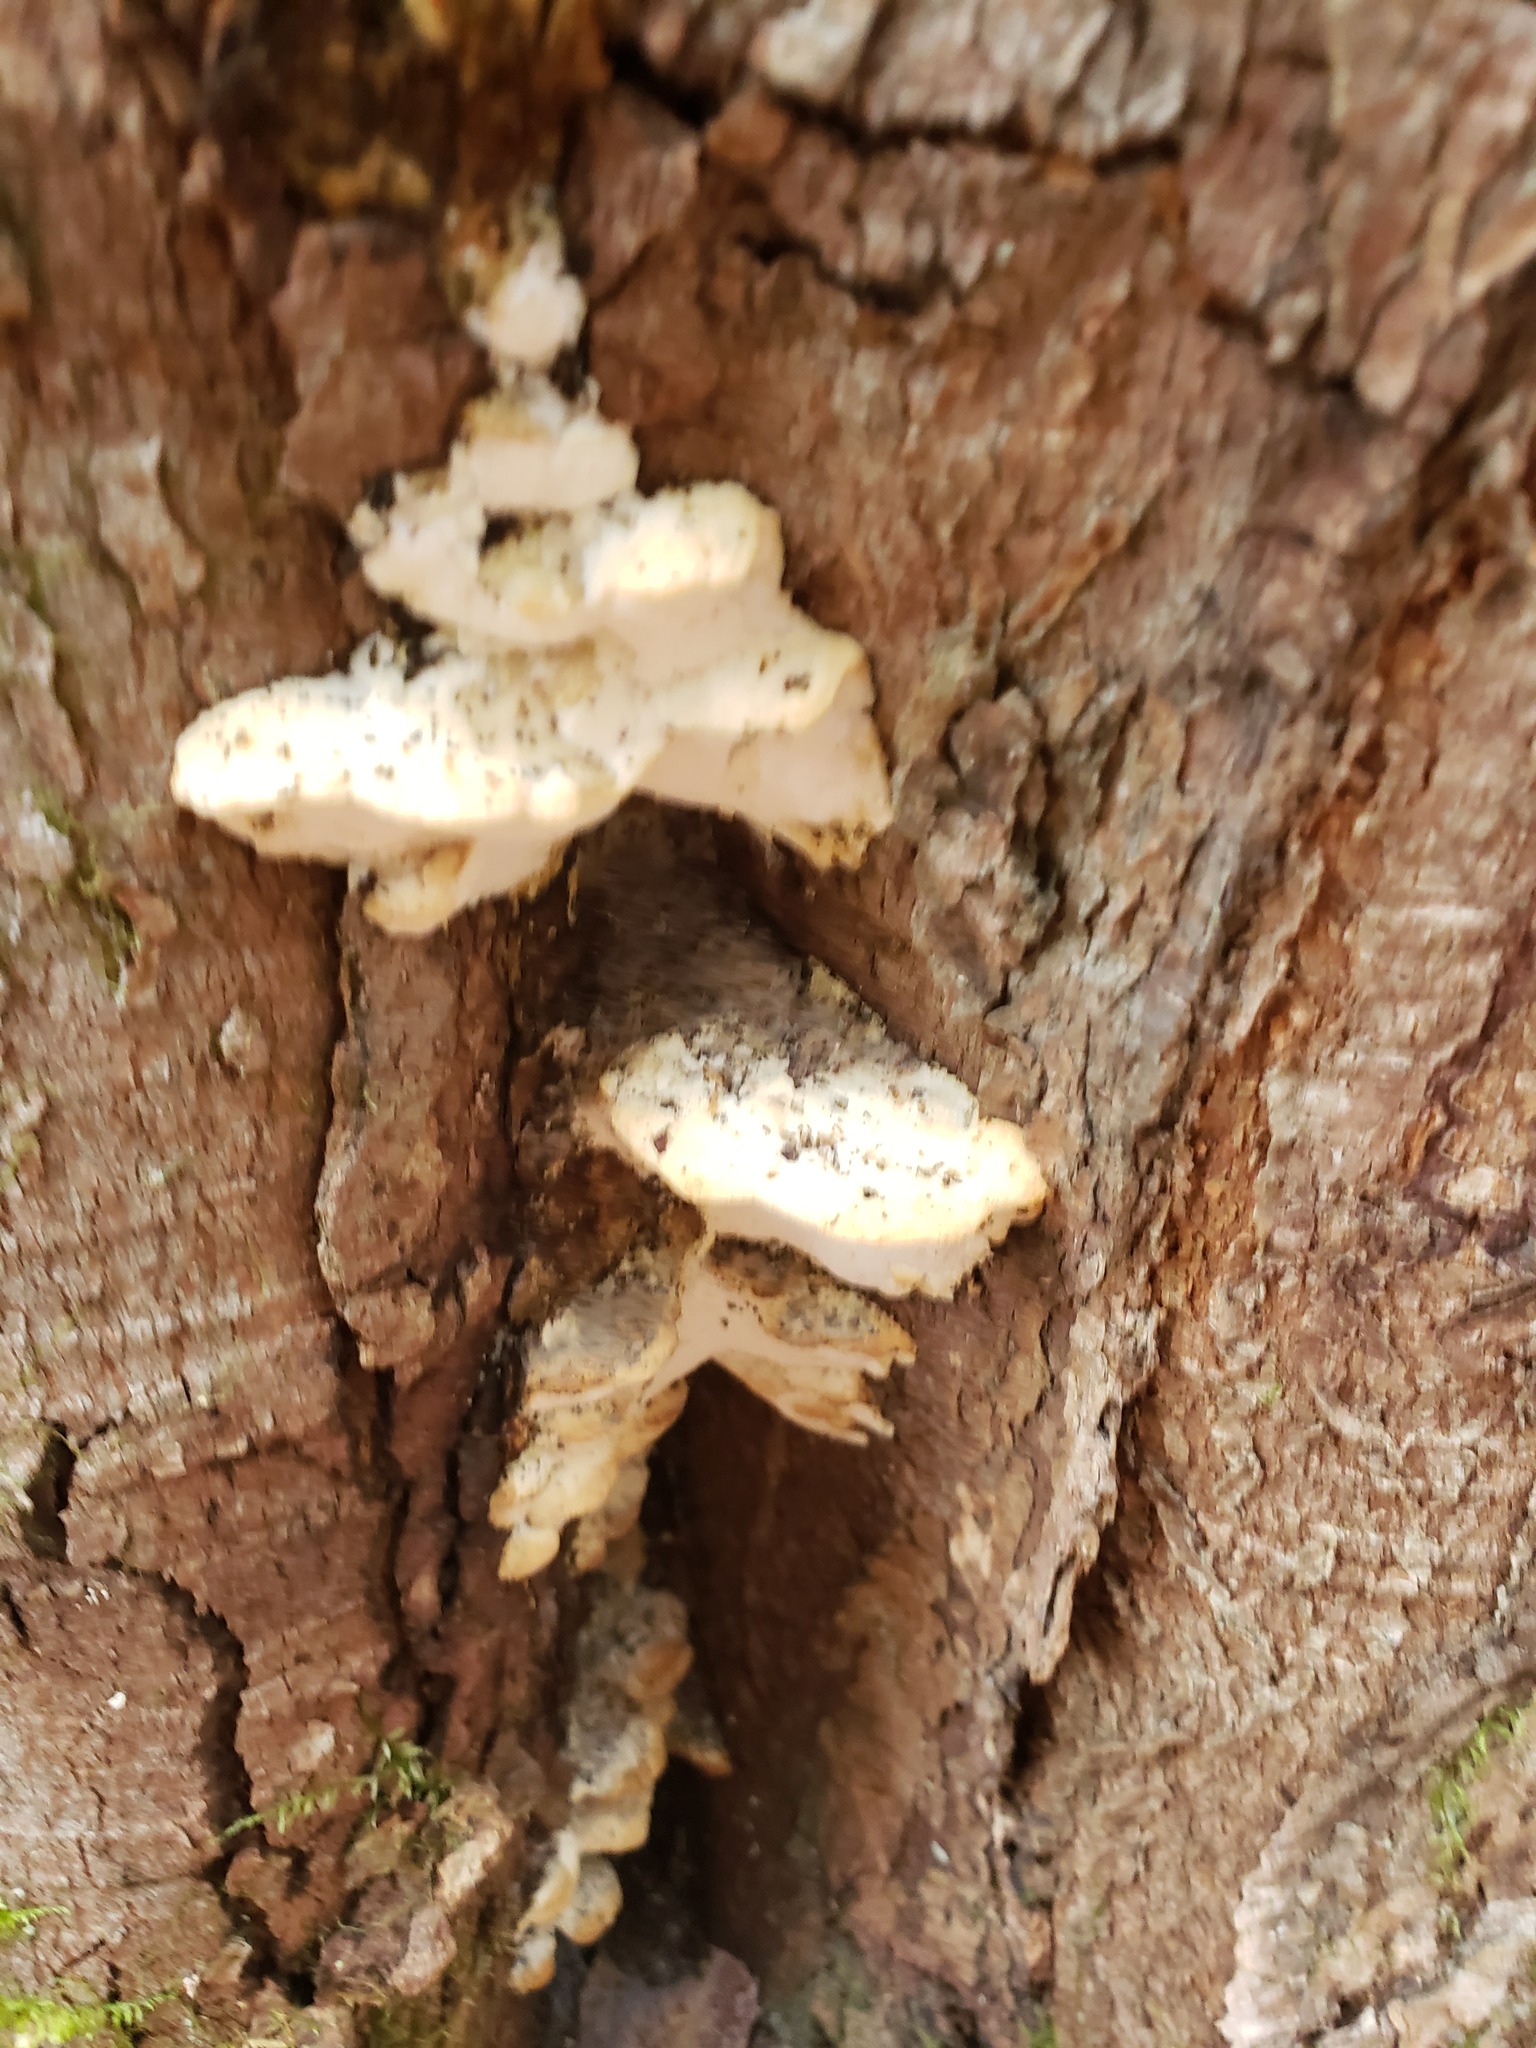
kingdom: Fungi
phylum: Basidiomycota
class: Agaricomycetes
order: Hymenochaetales
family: Oxyporaceae
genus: Oxyporus
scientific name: Oxyporus populinus
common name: Poplar bracket
